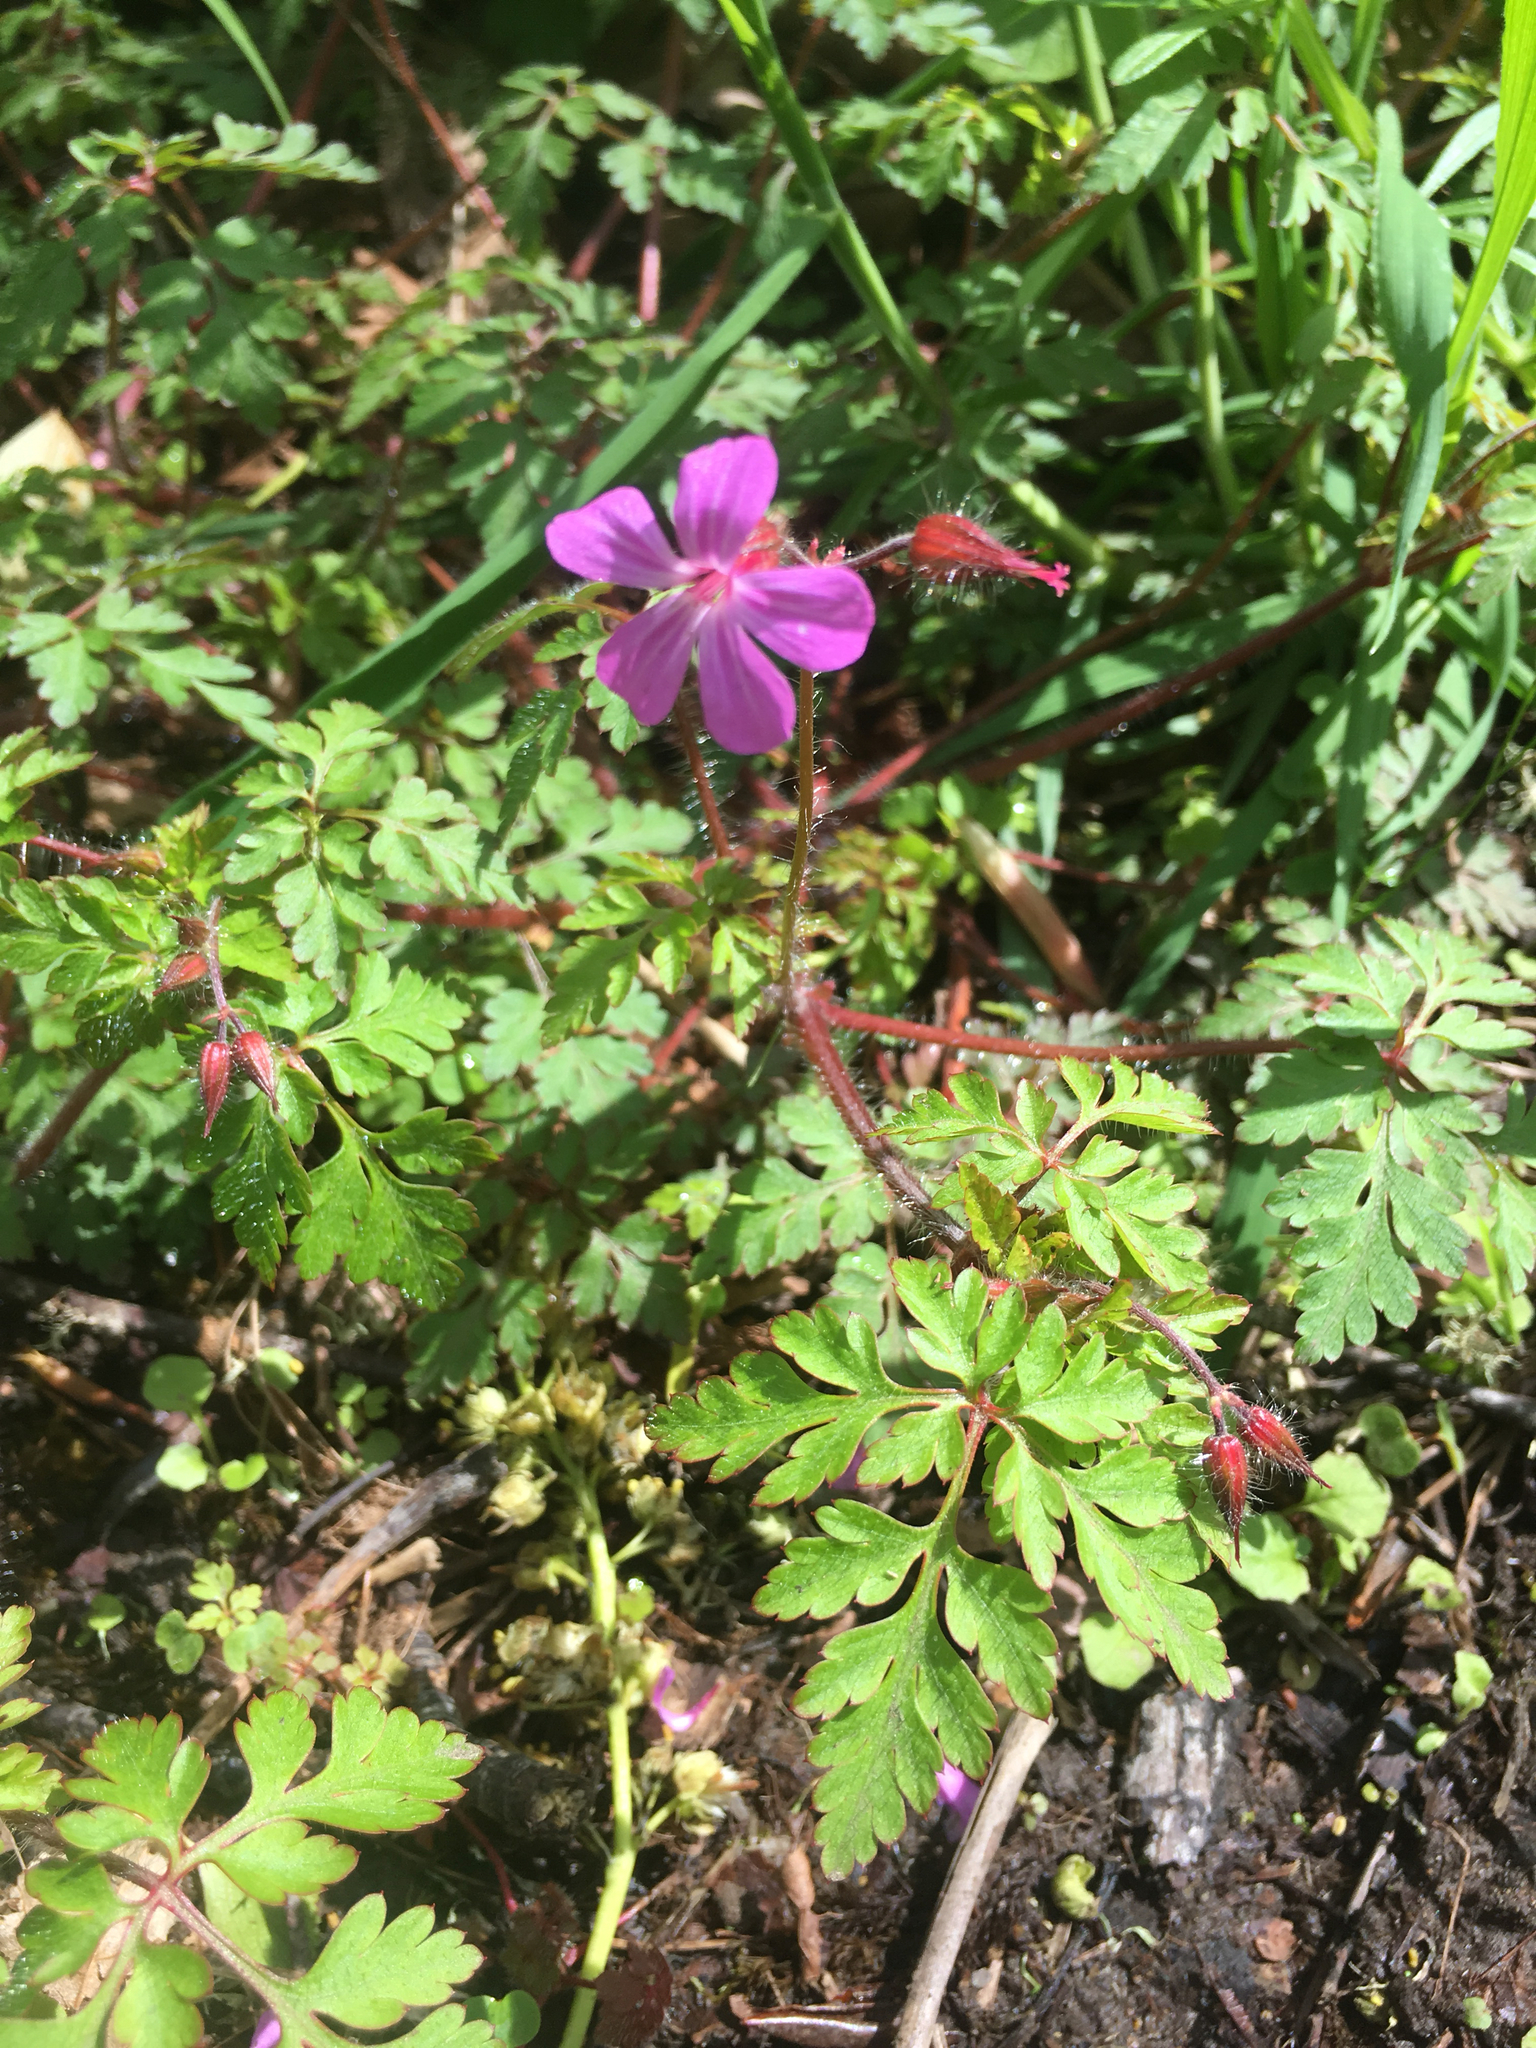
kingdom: Plantae
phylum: Tracheophyta
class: Magnoliopsida
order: Geraniales
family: Geraniaceae
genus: Geranium
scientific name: Geranium robertianum
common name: Herb-robert
